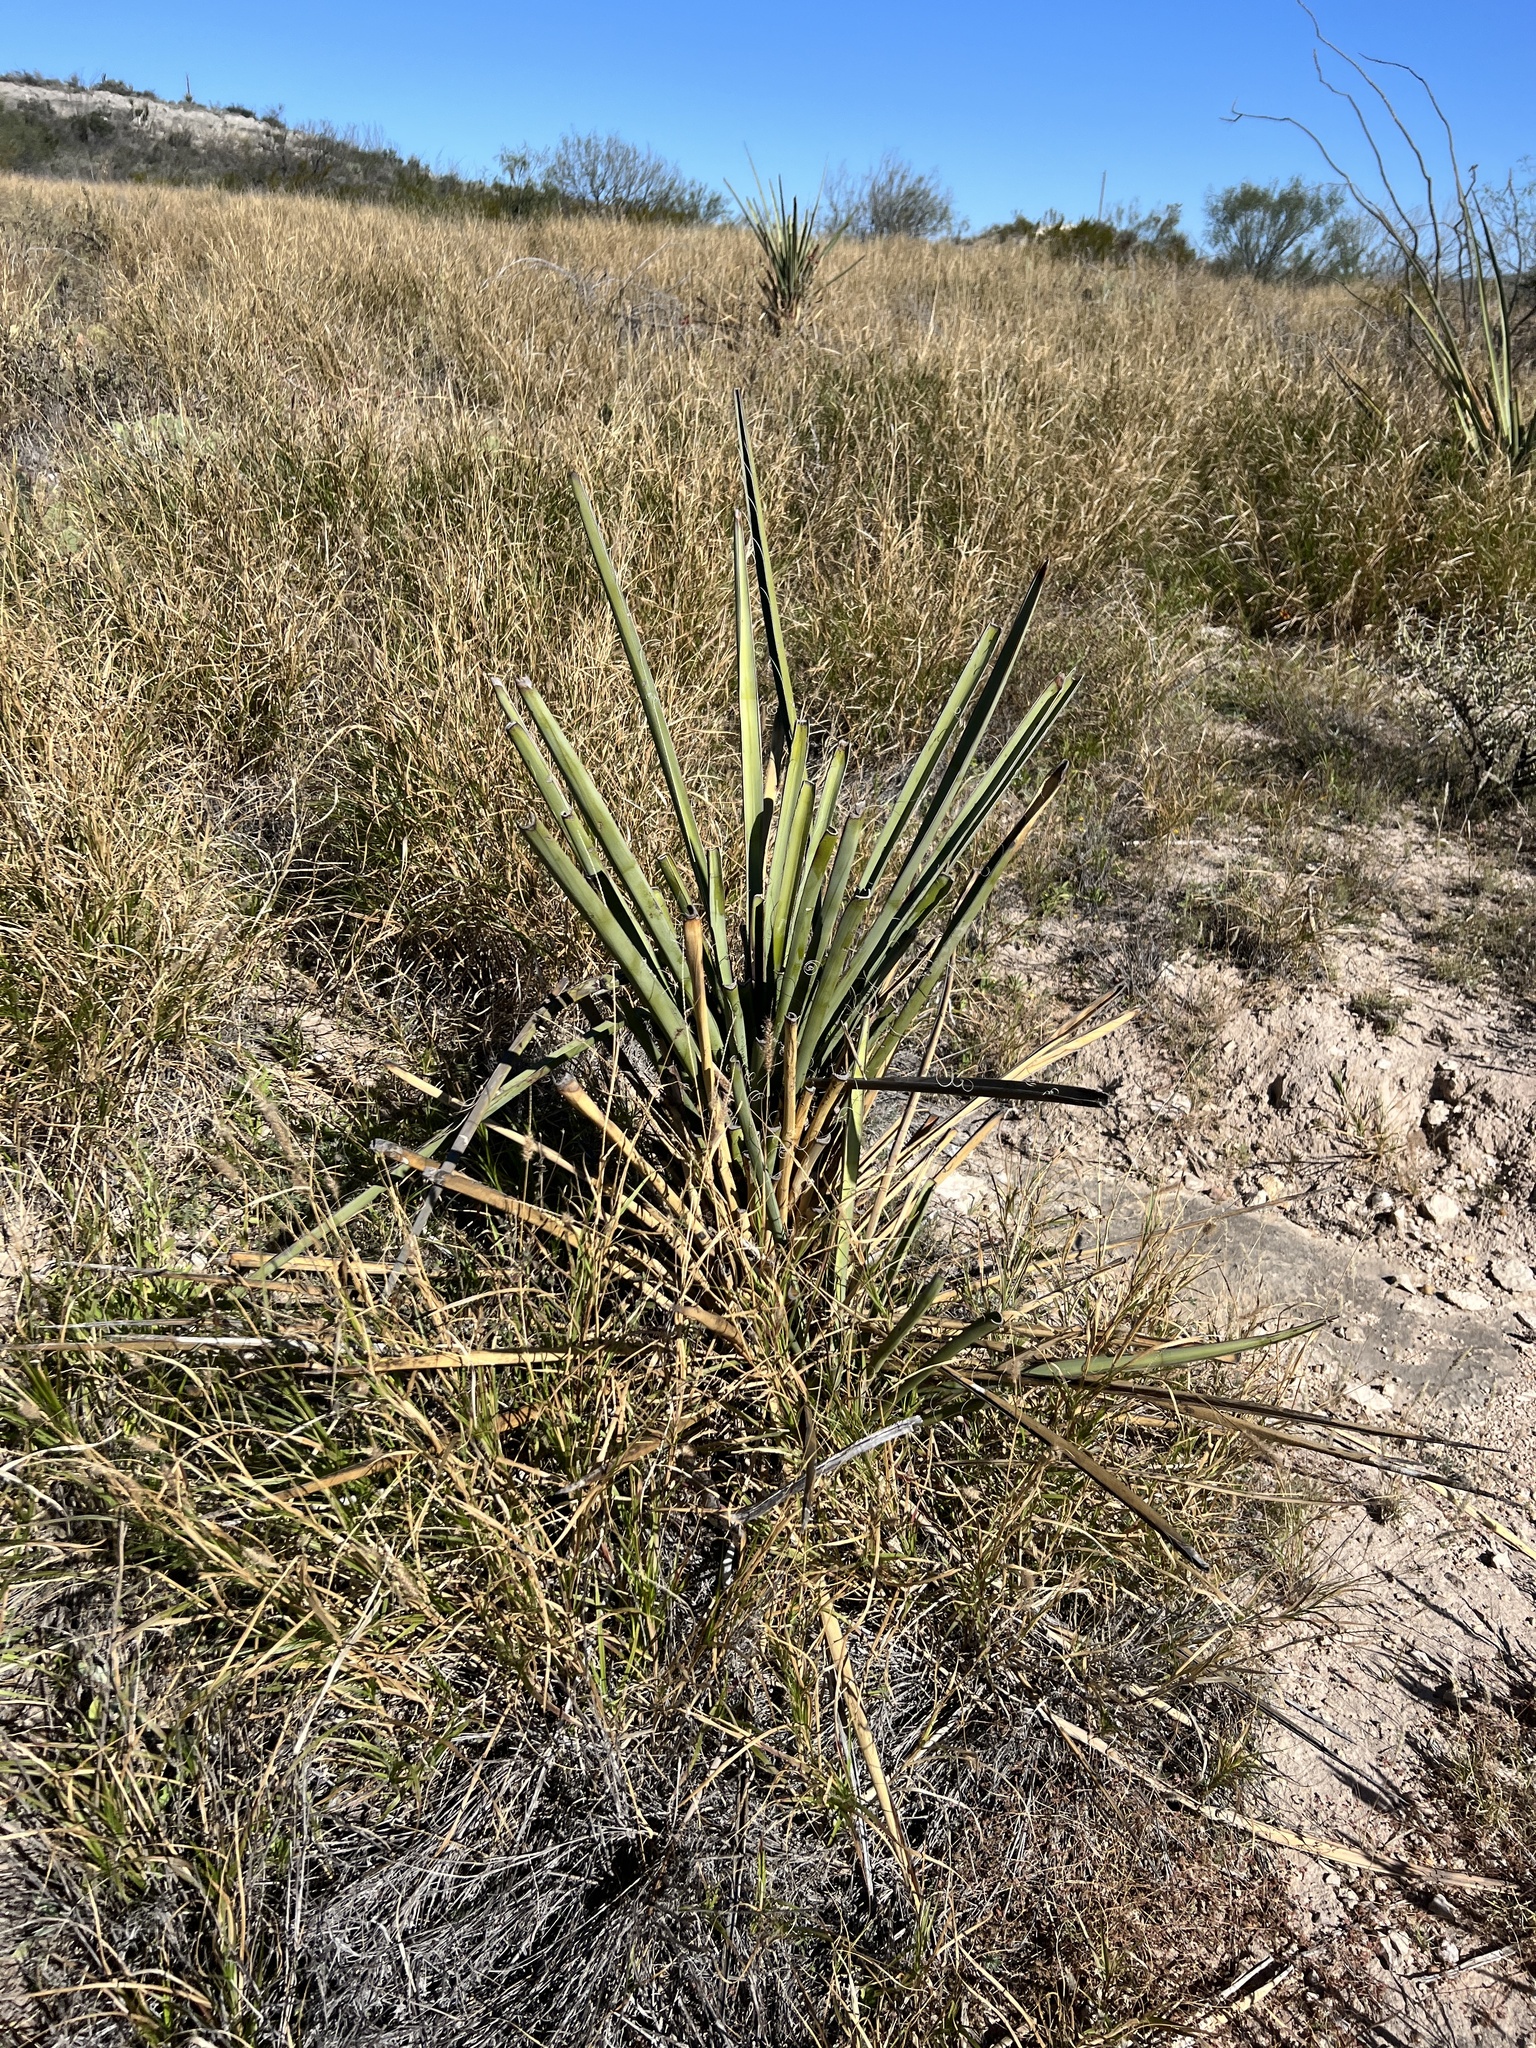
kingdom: Plantae
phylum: Tracheophyta
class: Liliopsida
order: Asparagales
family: Asparagaceae
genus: Yucca
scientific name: Yucca treculiana
